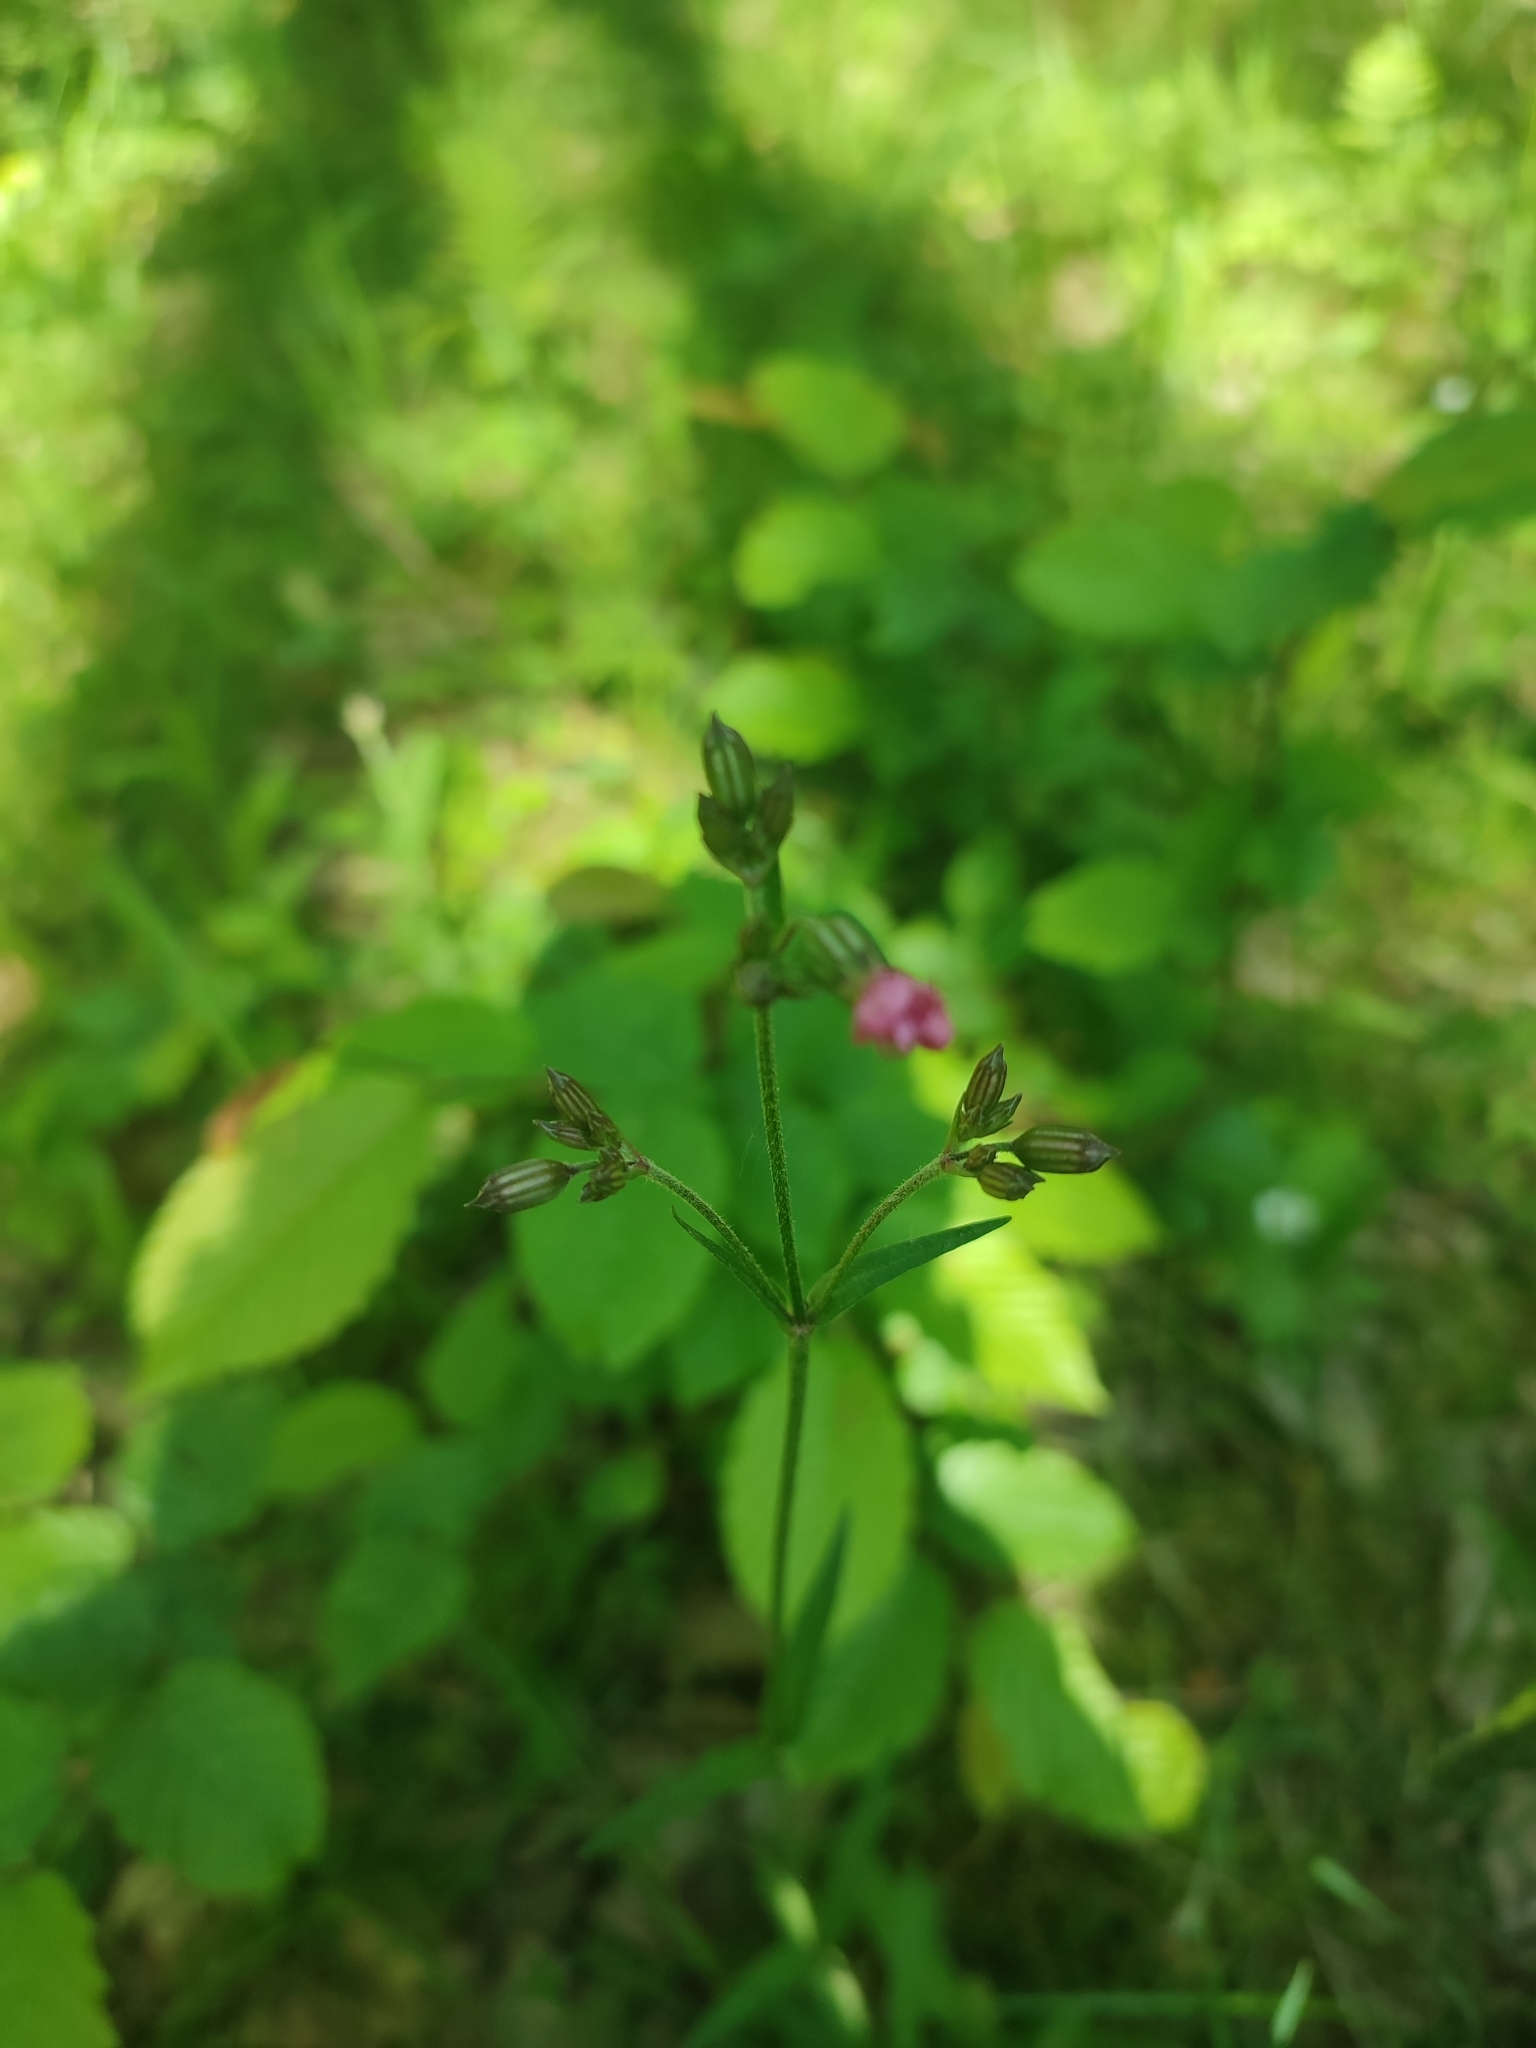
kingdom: Plantae
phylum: Tracheophyta
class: Magnoliopsida
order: Caryophyllales
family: Caryophyllaceae
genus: Silene
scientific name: Silene flos-cuculi
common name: Ragged-robin
